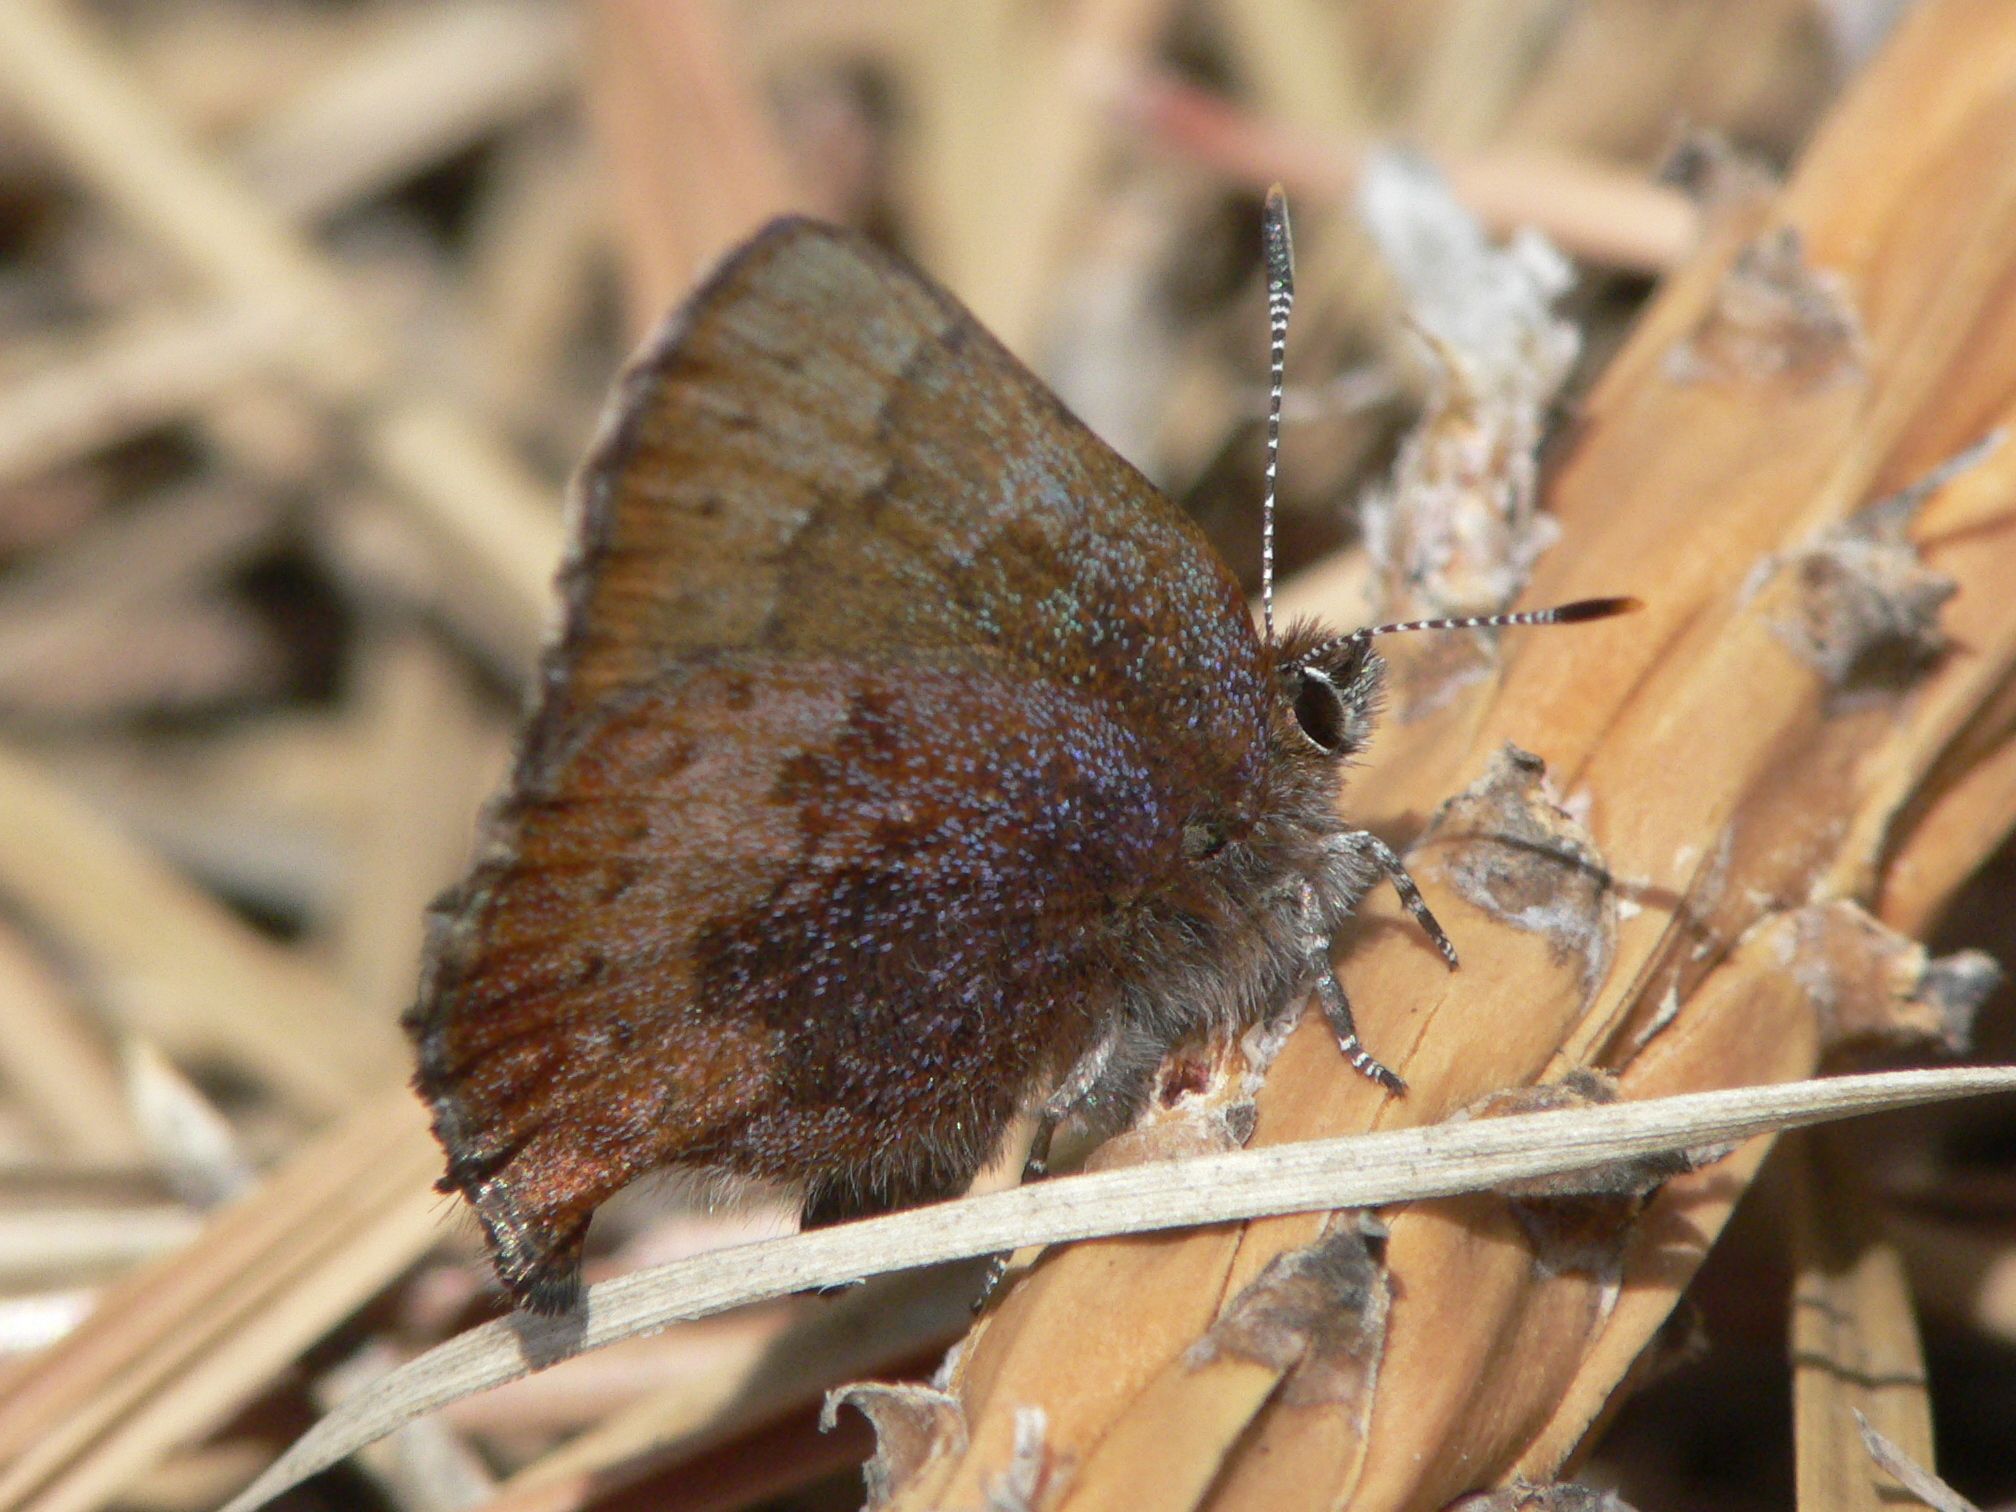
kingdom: Animalia
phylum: Arthropoda
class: Insecta
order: Lepidoptera
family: Lycaenidae
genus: Incisalia
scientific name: Incisalia irioides
